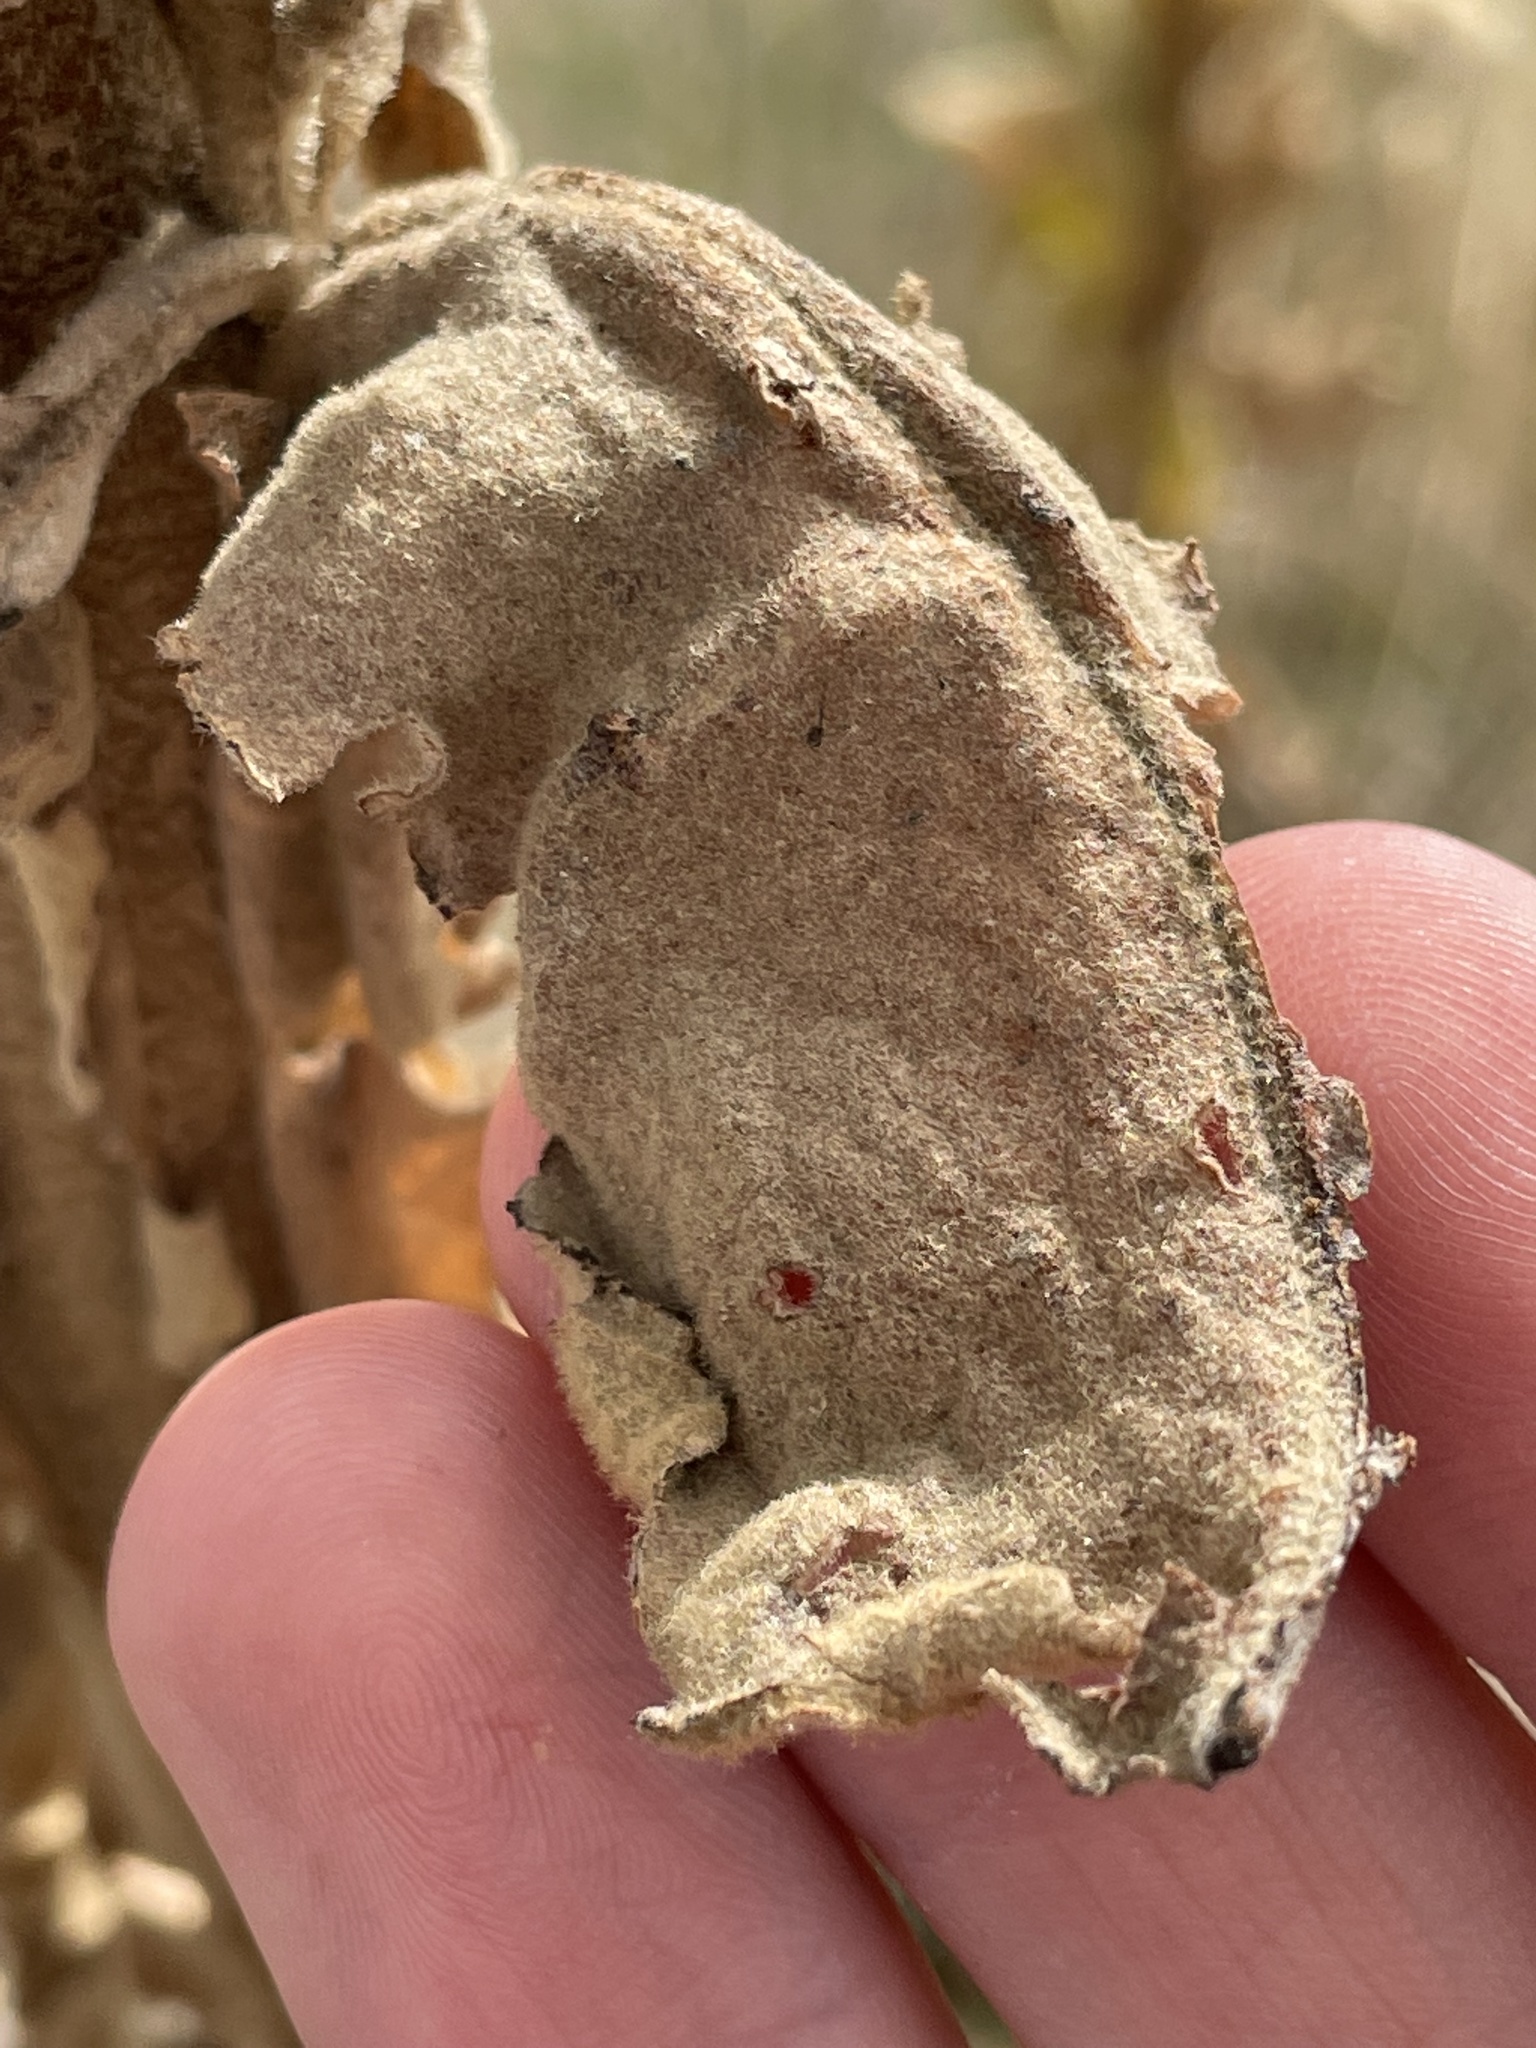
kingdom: Plantae
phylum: Tracheophyta
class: Magnoliopsida
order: Lamiales
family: Scrophulariaceae
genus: Verbascum
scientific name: Verbascum thapsus
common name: Common mullein
